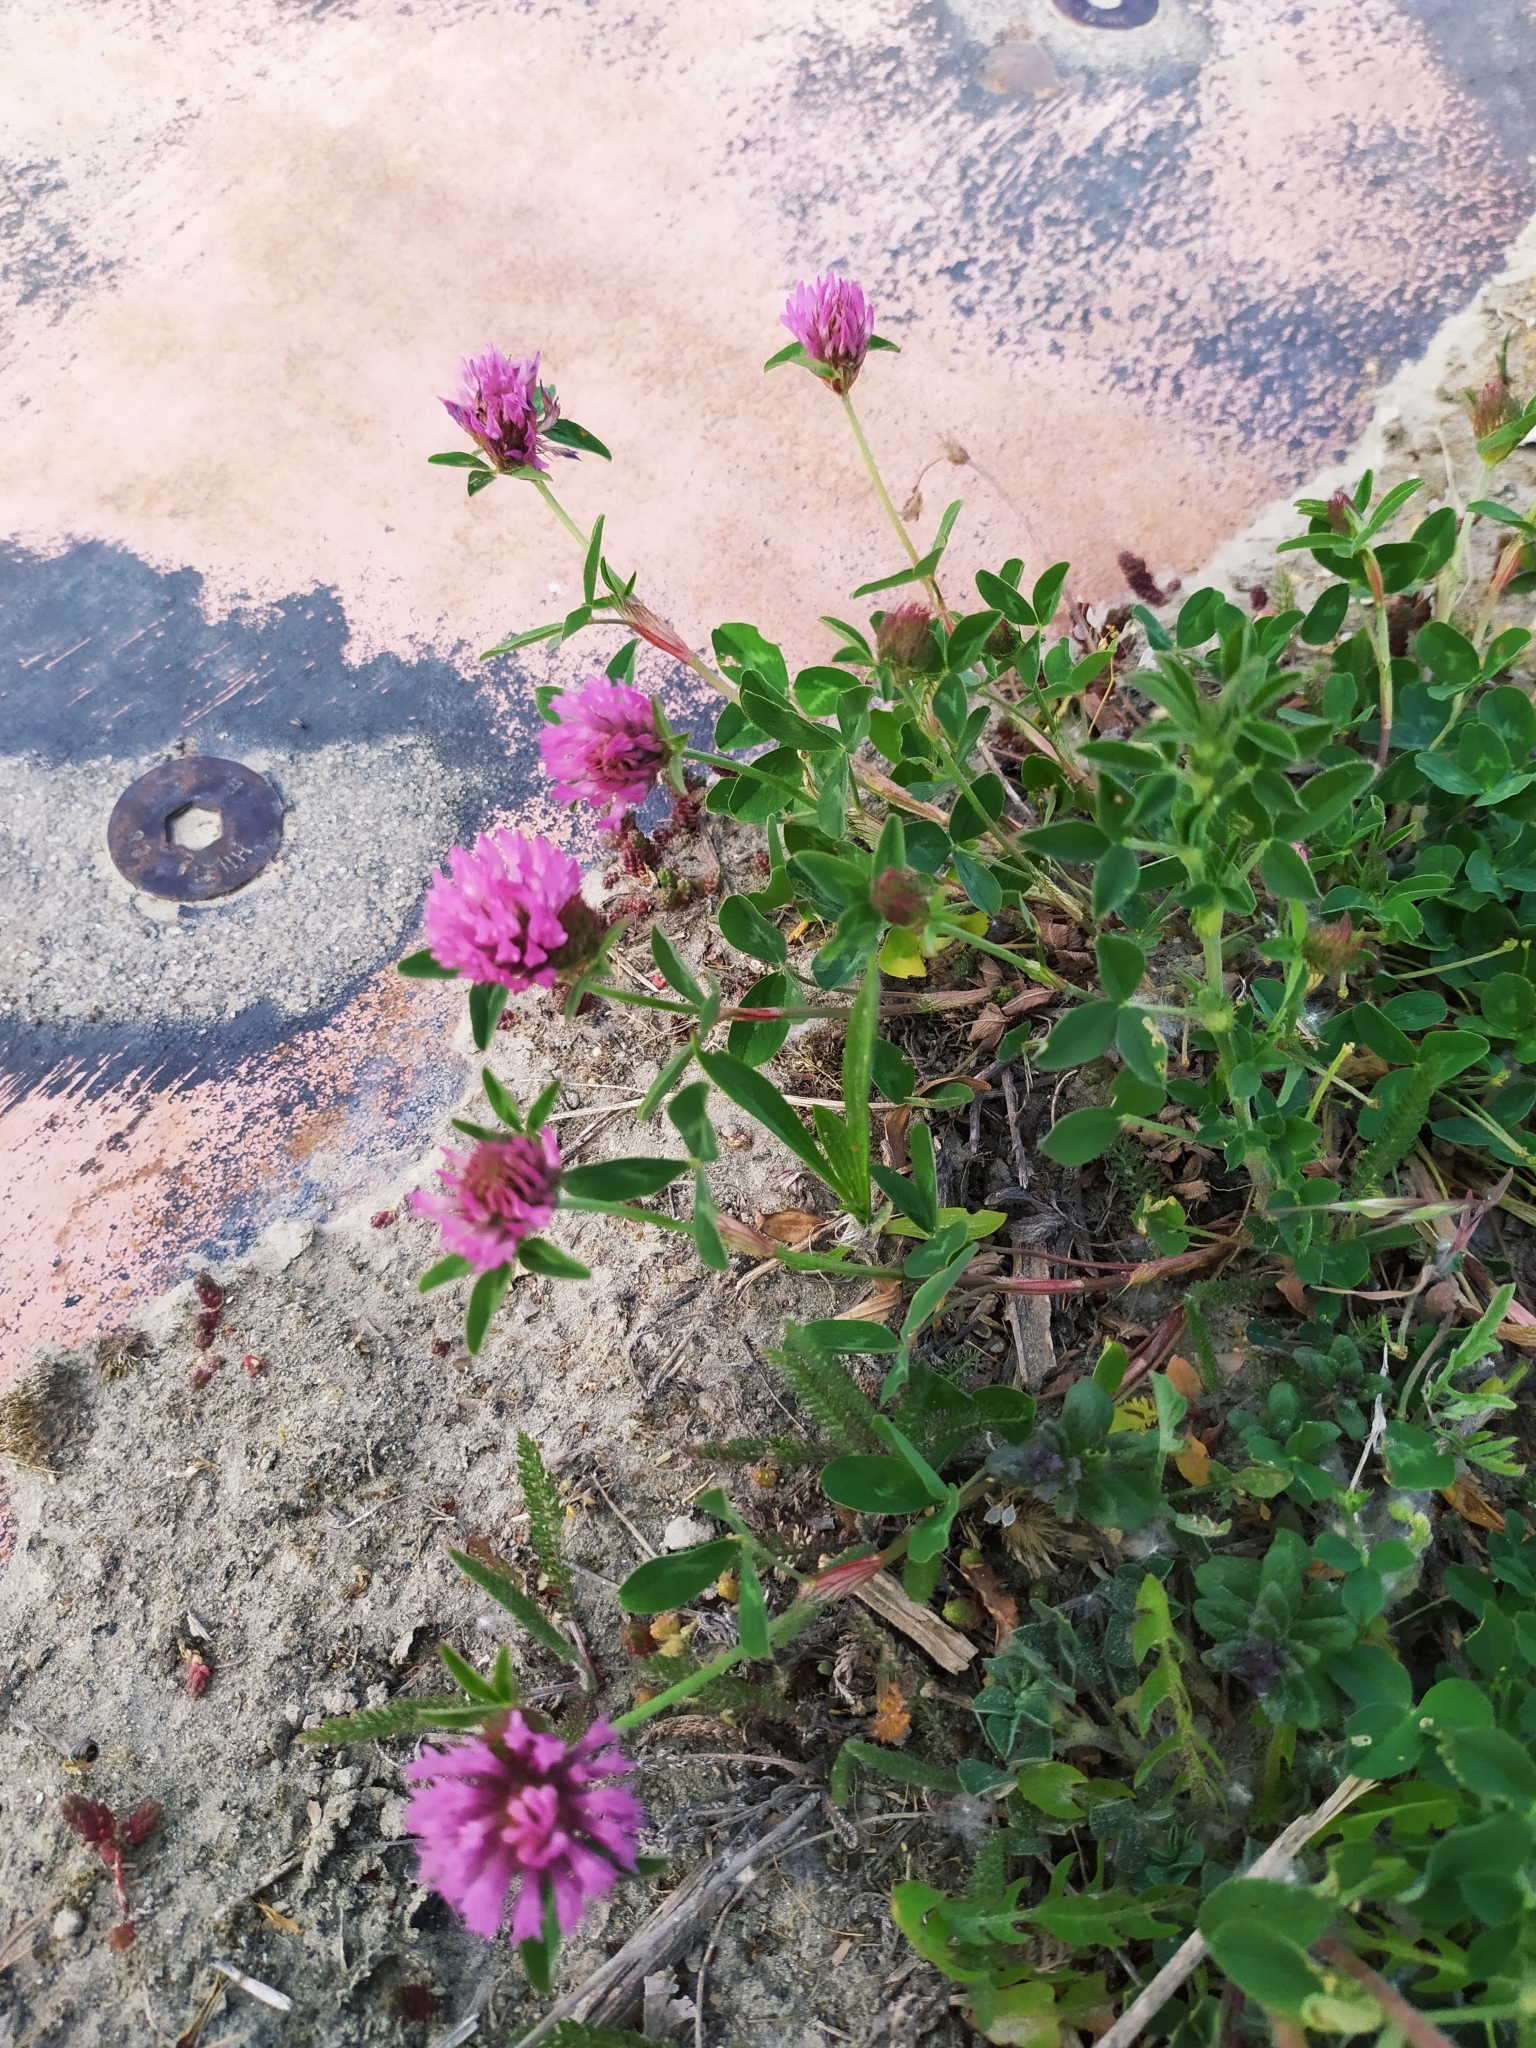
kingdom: Plantae
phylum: Tracheophyta
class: Magnoliopsida
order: Fabales
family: Fabaceae
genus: Trifolium
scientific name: Trifolium pratense
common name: Red clover
